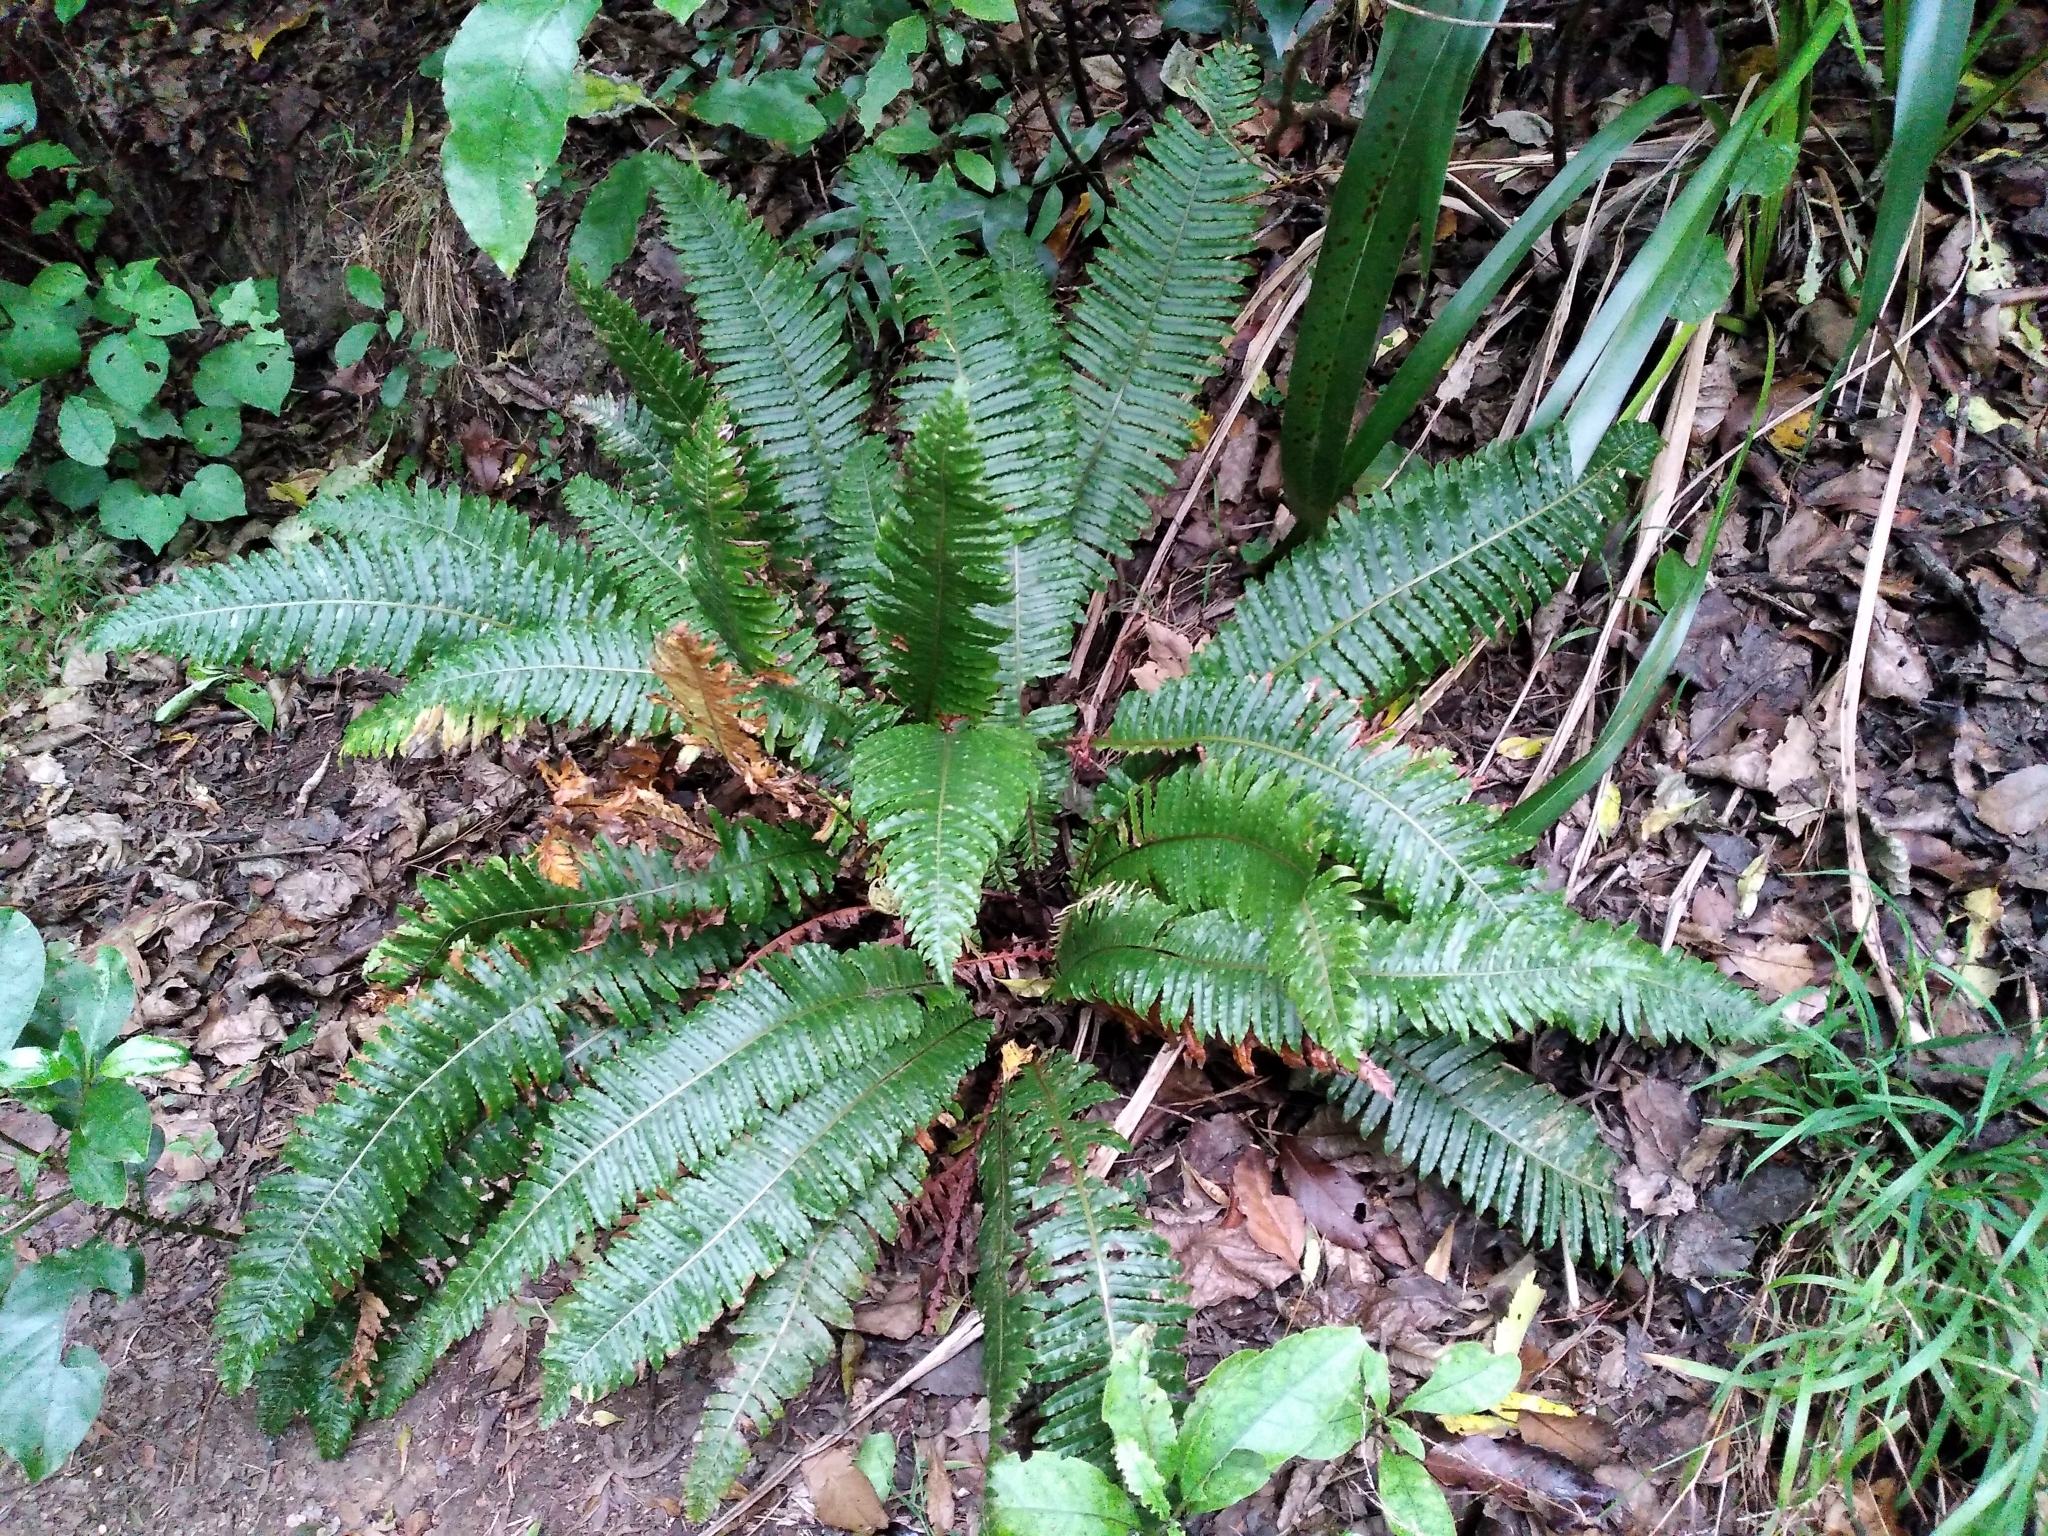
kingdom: Plantae
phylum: Tracheophyta
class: Polypodiopsida
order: Polypodiales
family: Blechnaceae
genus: Lomaria
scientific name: Lomaria discolor
